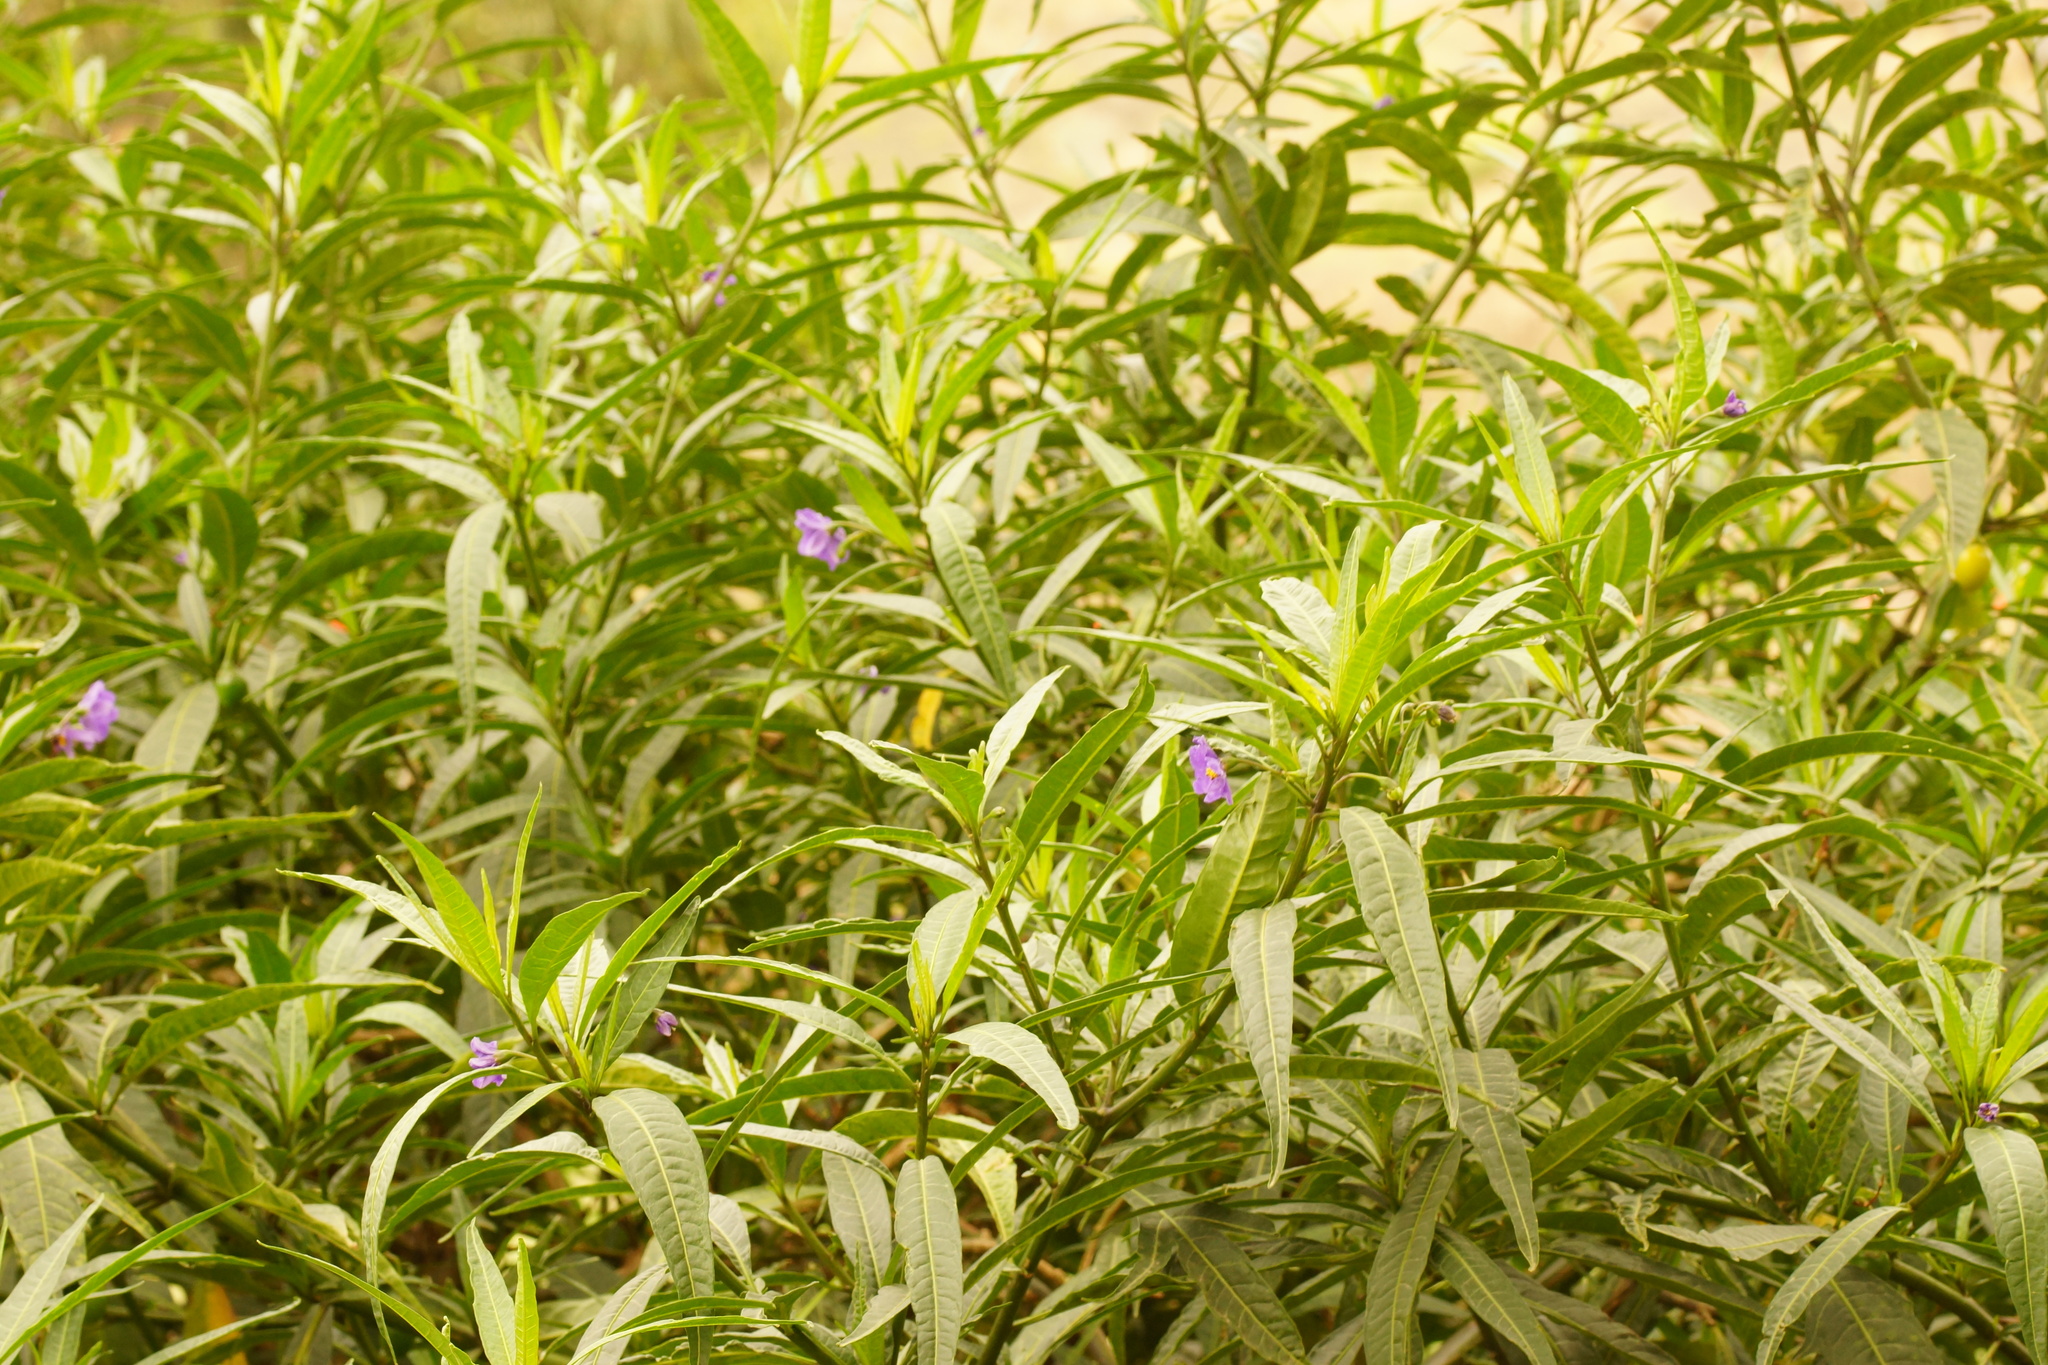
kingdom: Plantae
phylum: Tracheophyta
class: Magnoliopsida
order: Solanales
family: Solanaceae
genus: Solanum
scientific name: Solanum laciniatum
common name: Kangaroo-apple
